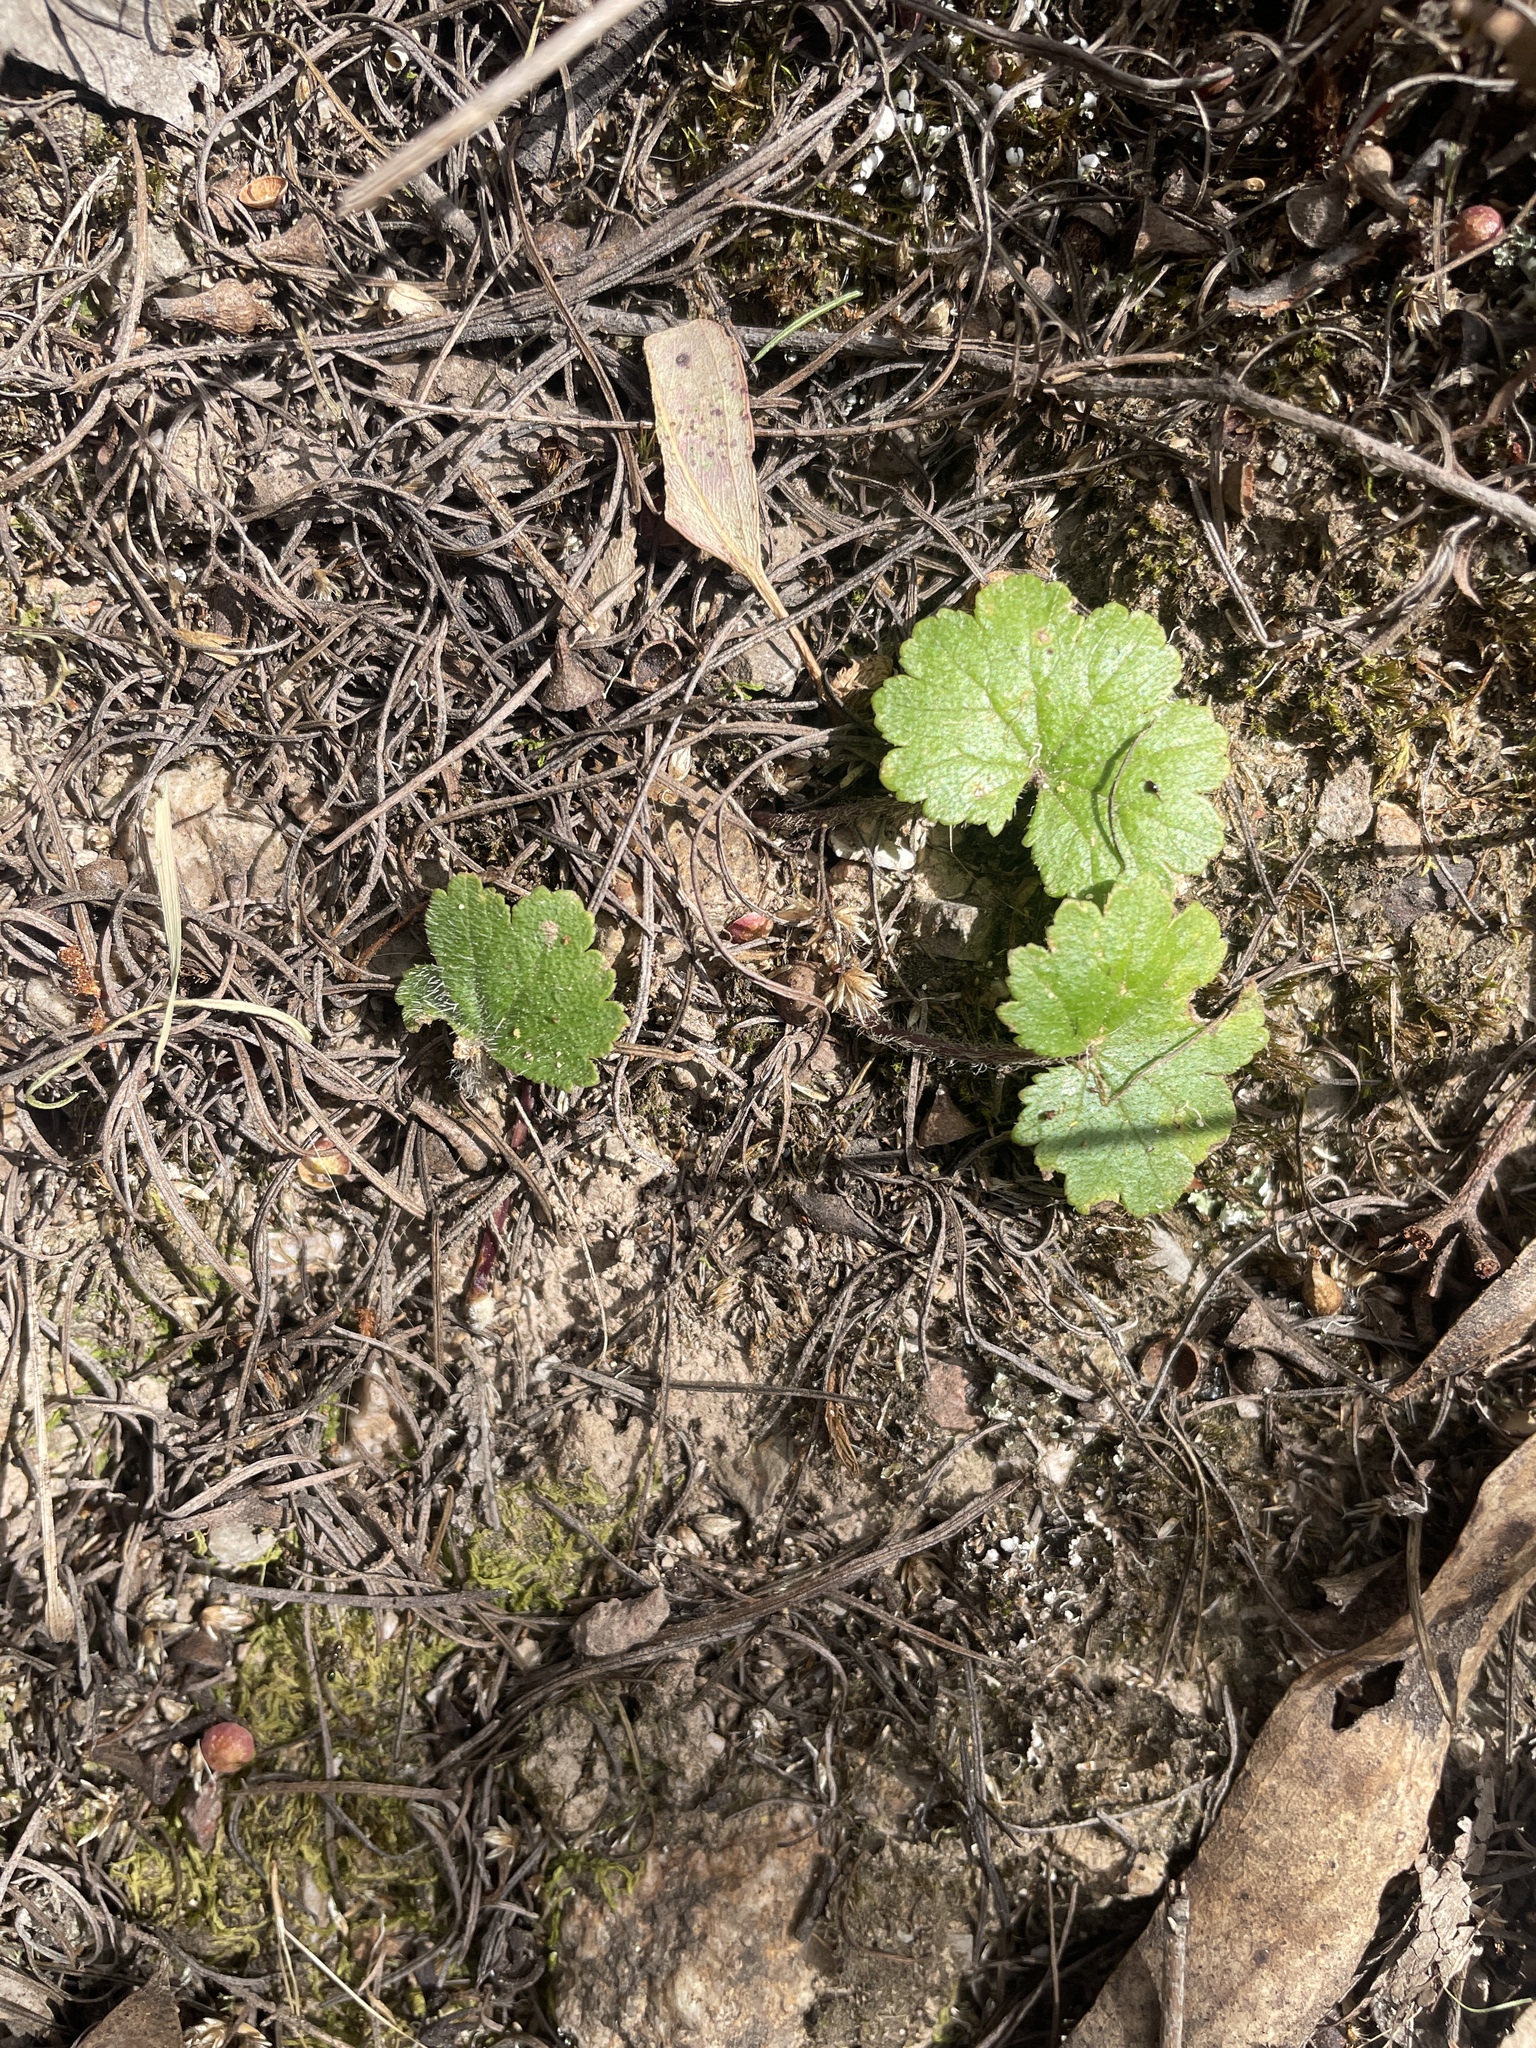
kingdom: Plantae
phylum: Tracheophyta
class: Magnoliopsida
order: Apiales
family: Araliaceae
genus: Hydrocotyle
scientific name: Hydrocotyle laxiflora
